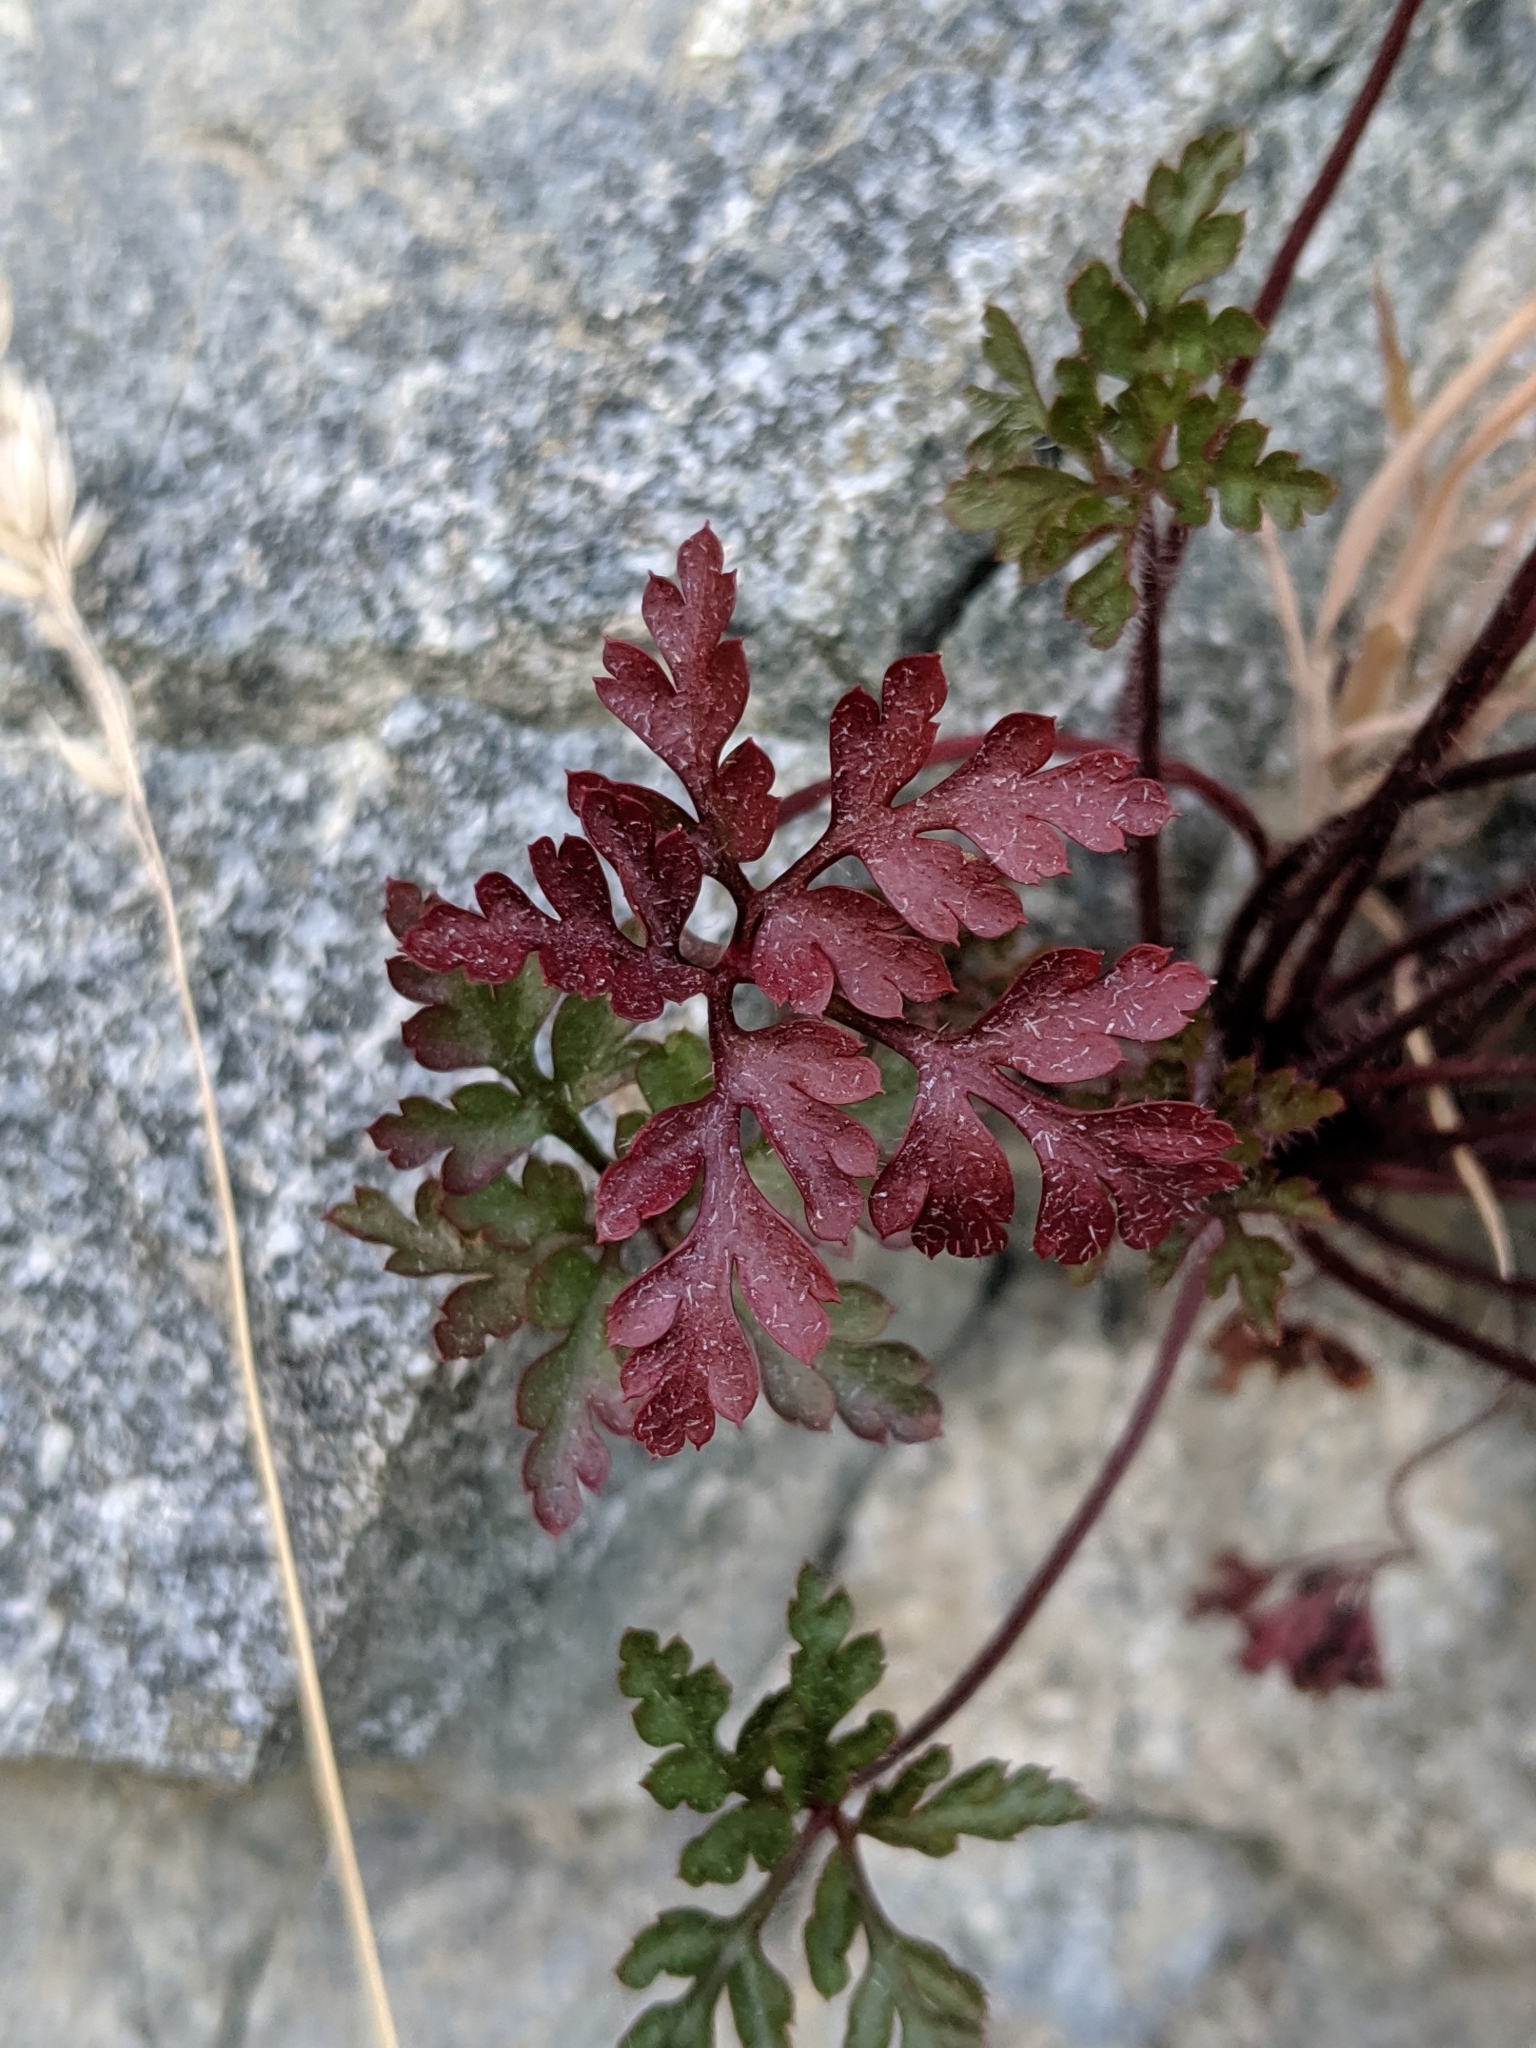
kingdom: Plantae
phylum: Tracheophyta
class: Magnoliopsida
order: Geraniales
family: Geraniaceae
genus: Geranium
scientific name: Geranium robertianum
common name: Herb-robert
